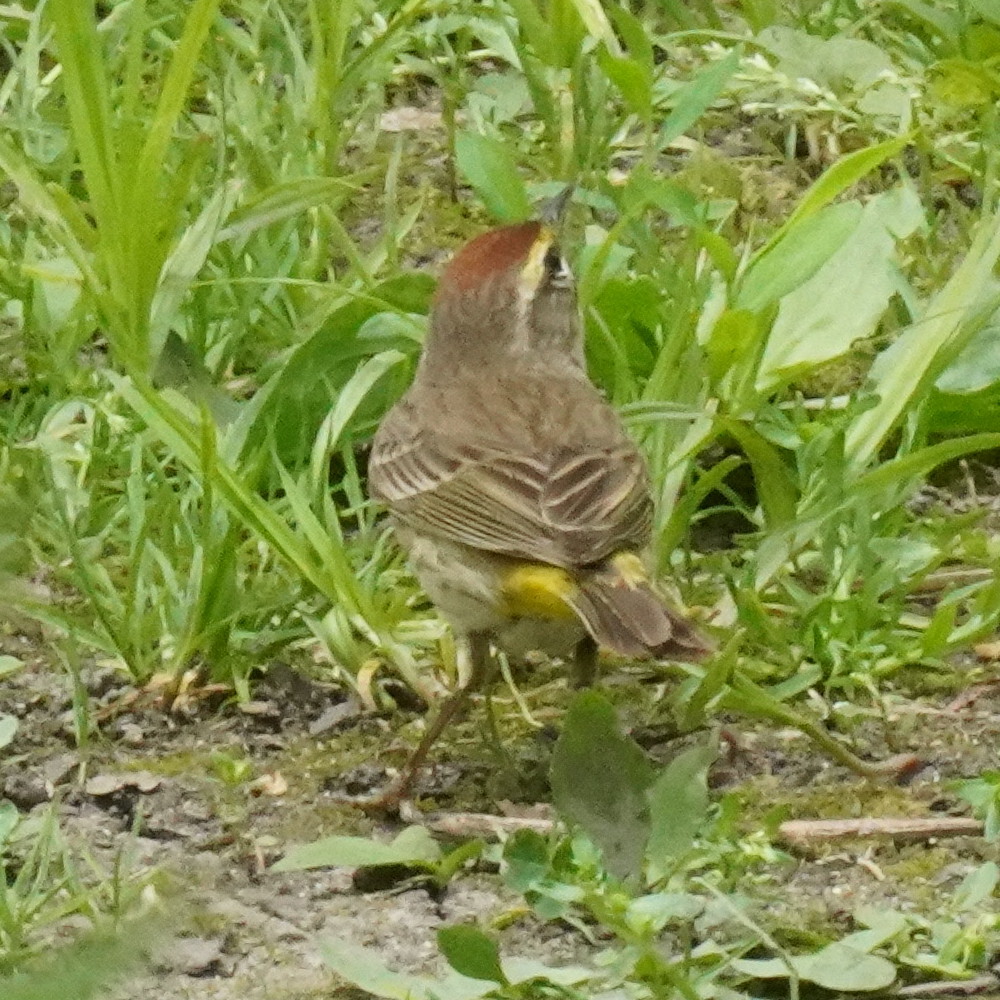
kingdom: Animalia
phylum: Chordata
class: Aves
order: Passeriformes
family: Parulidae
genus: Setophaga
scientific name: Setophaga palmarum
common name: Palm warbler
